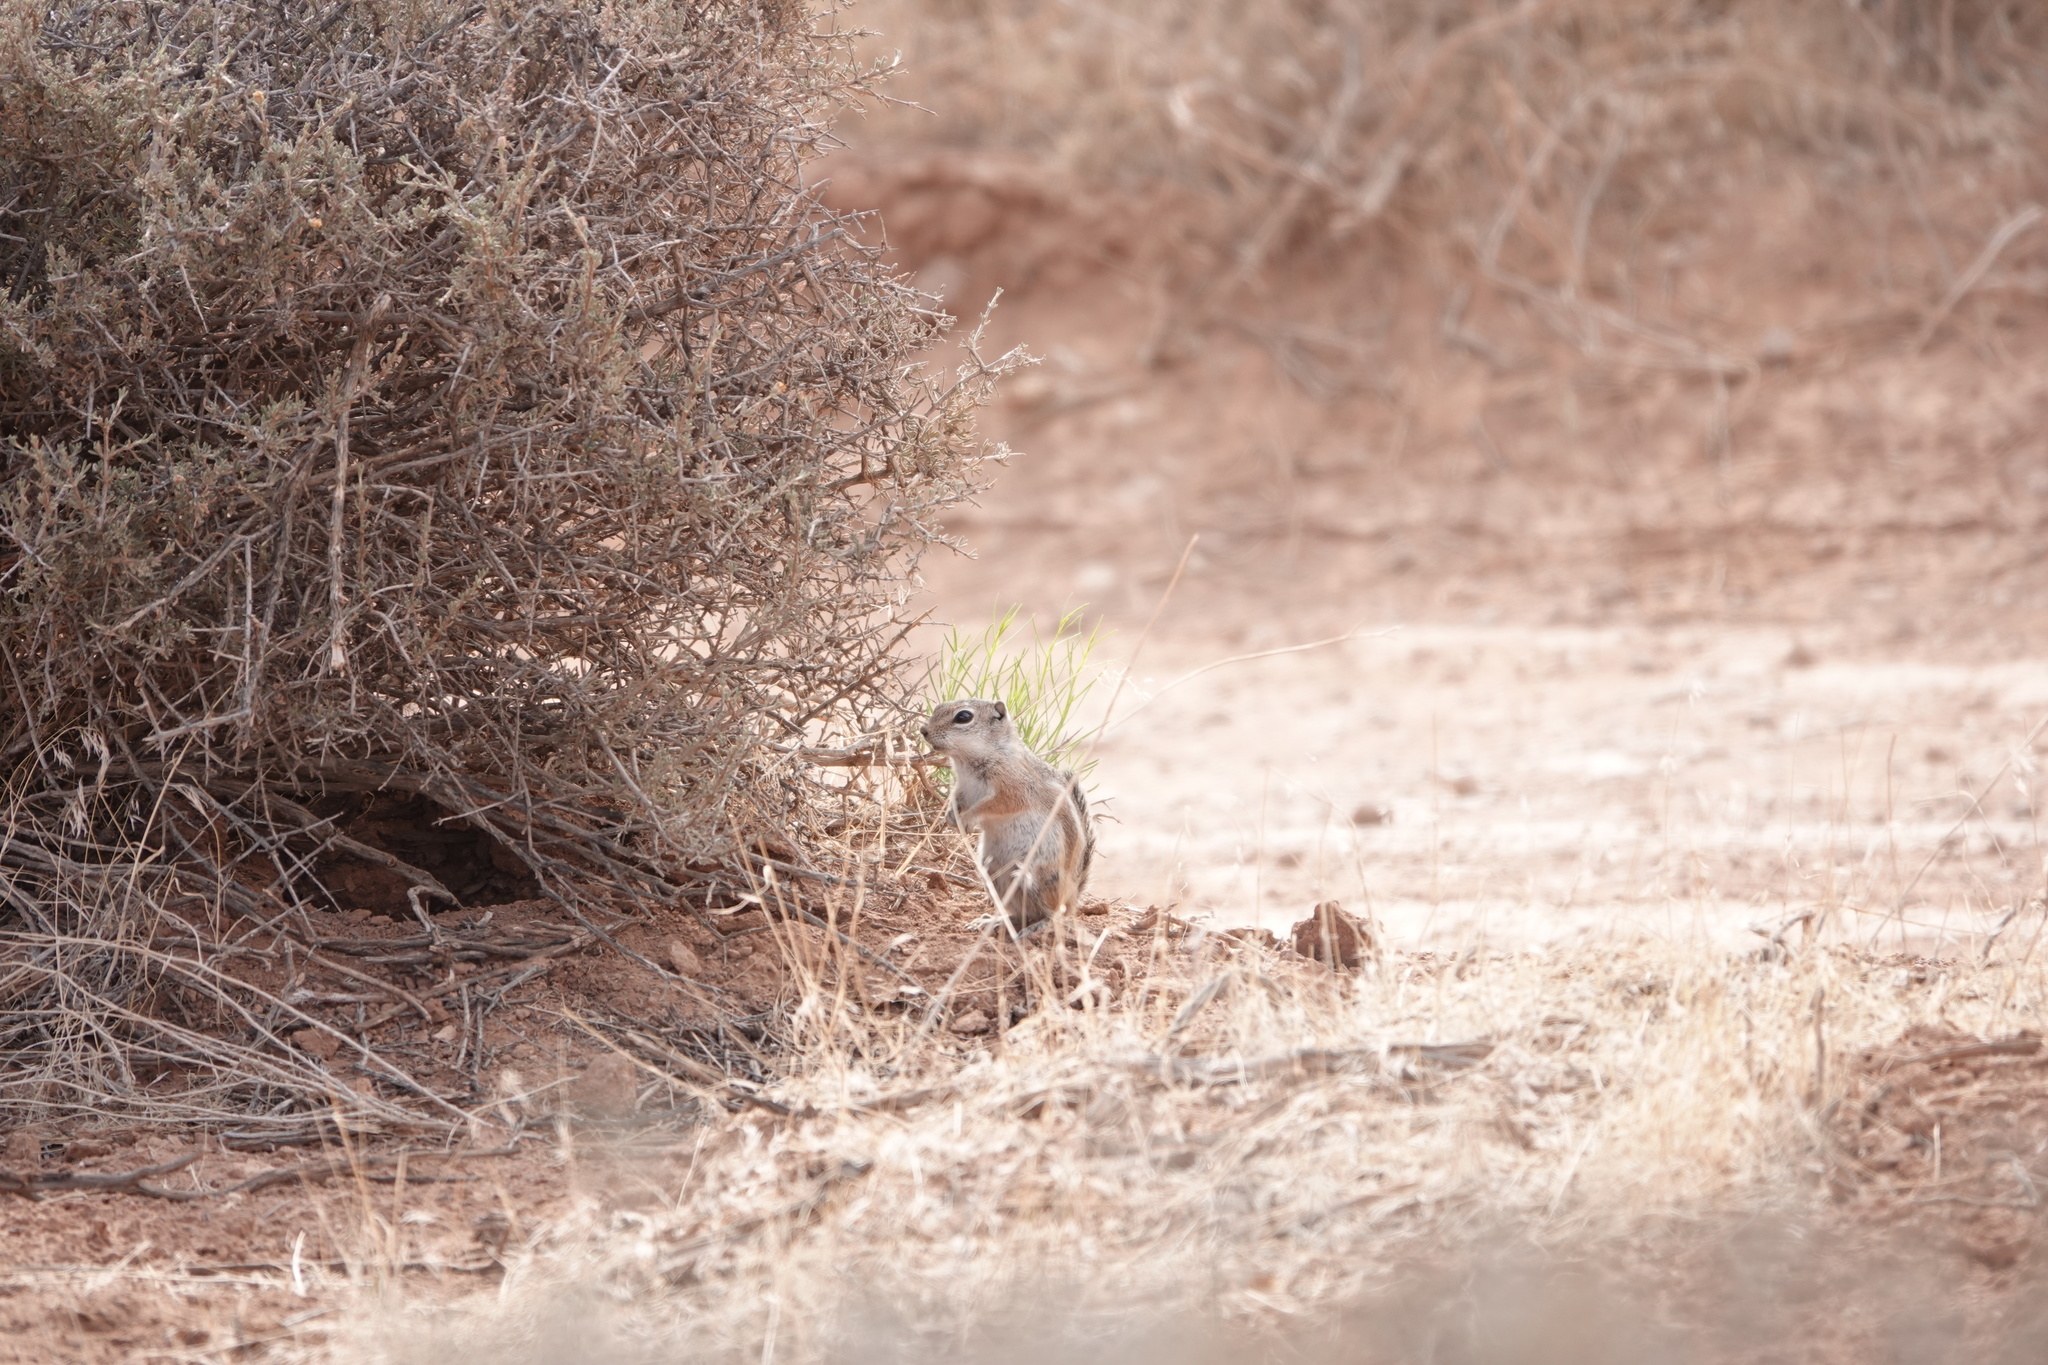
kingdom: Animalia
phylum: Chordata
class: Mammalia
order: Rodentia
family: Sciuridae
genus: Ammospermophilus
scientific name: Ammospermophilus leucurus
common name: White-tailed antelope squirrel
